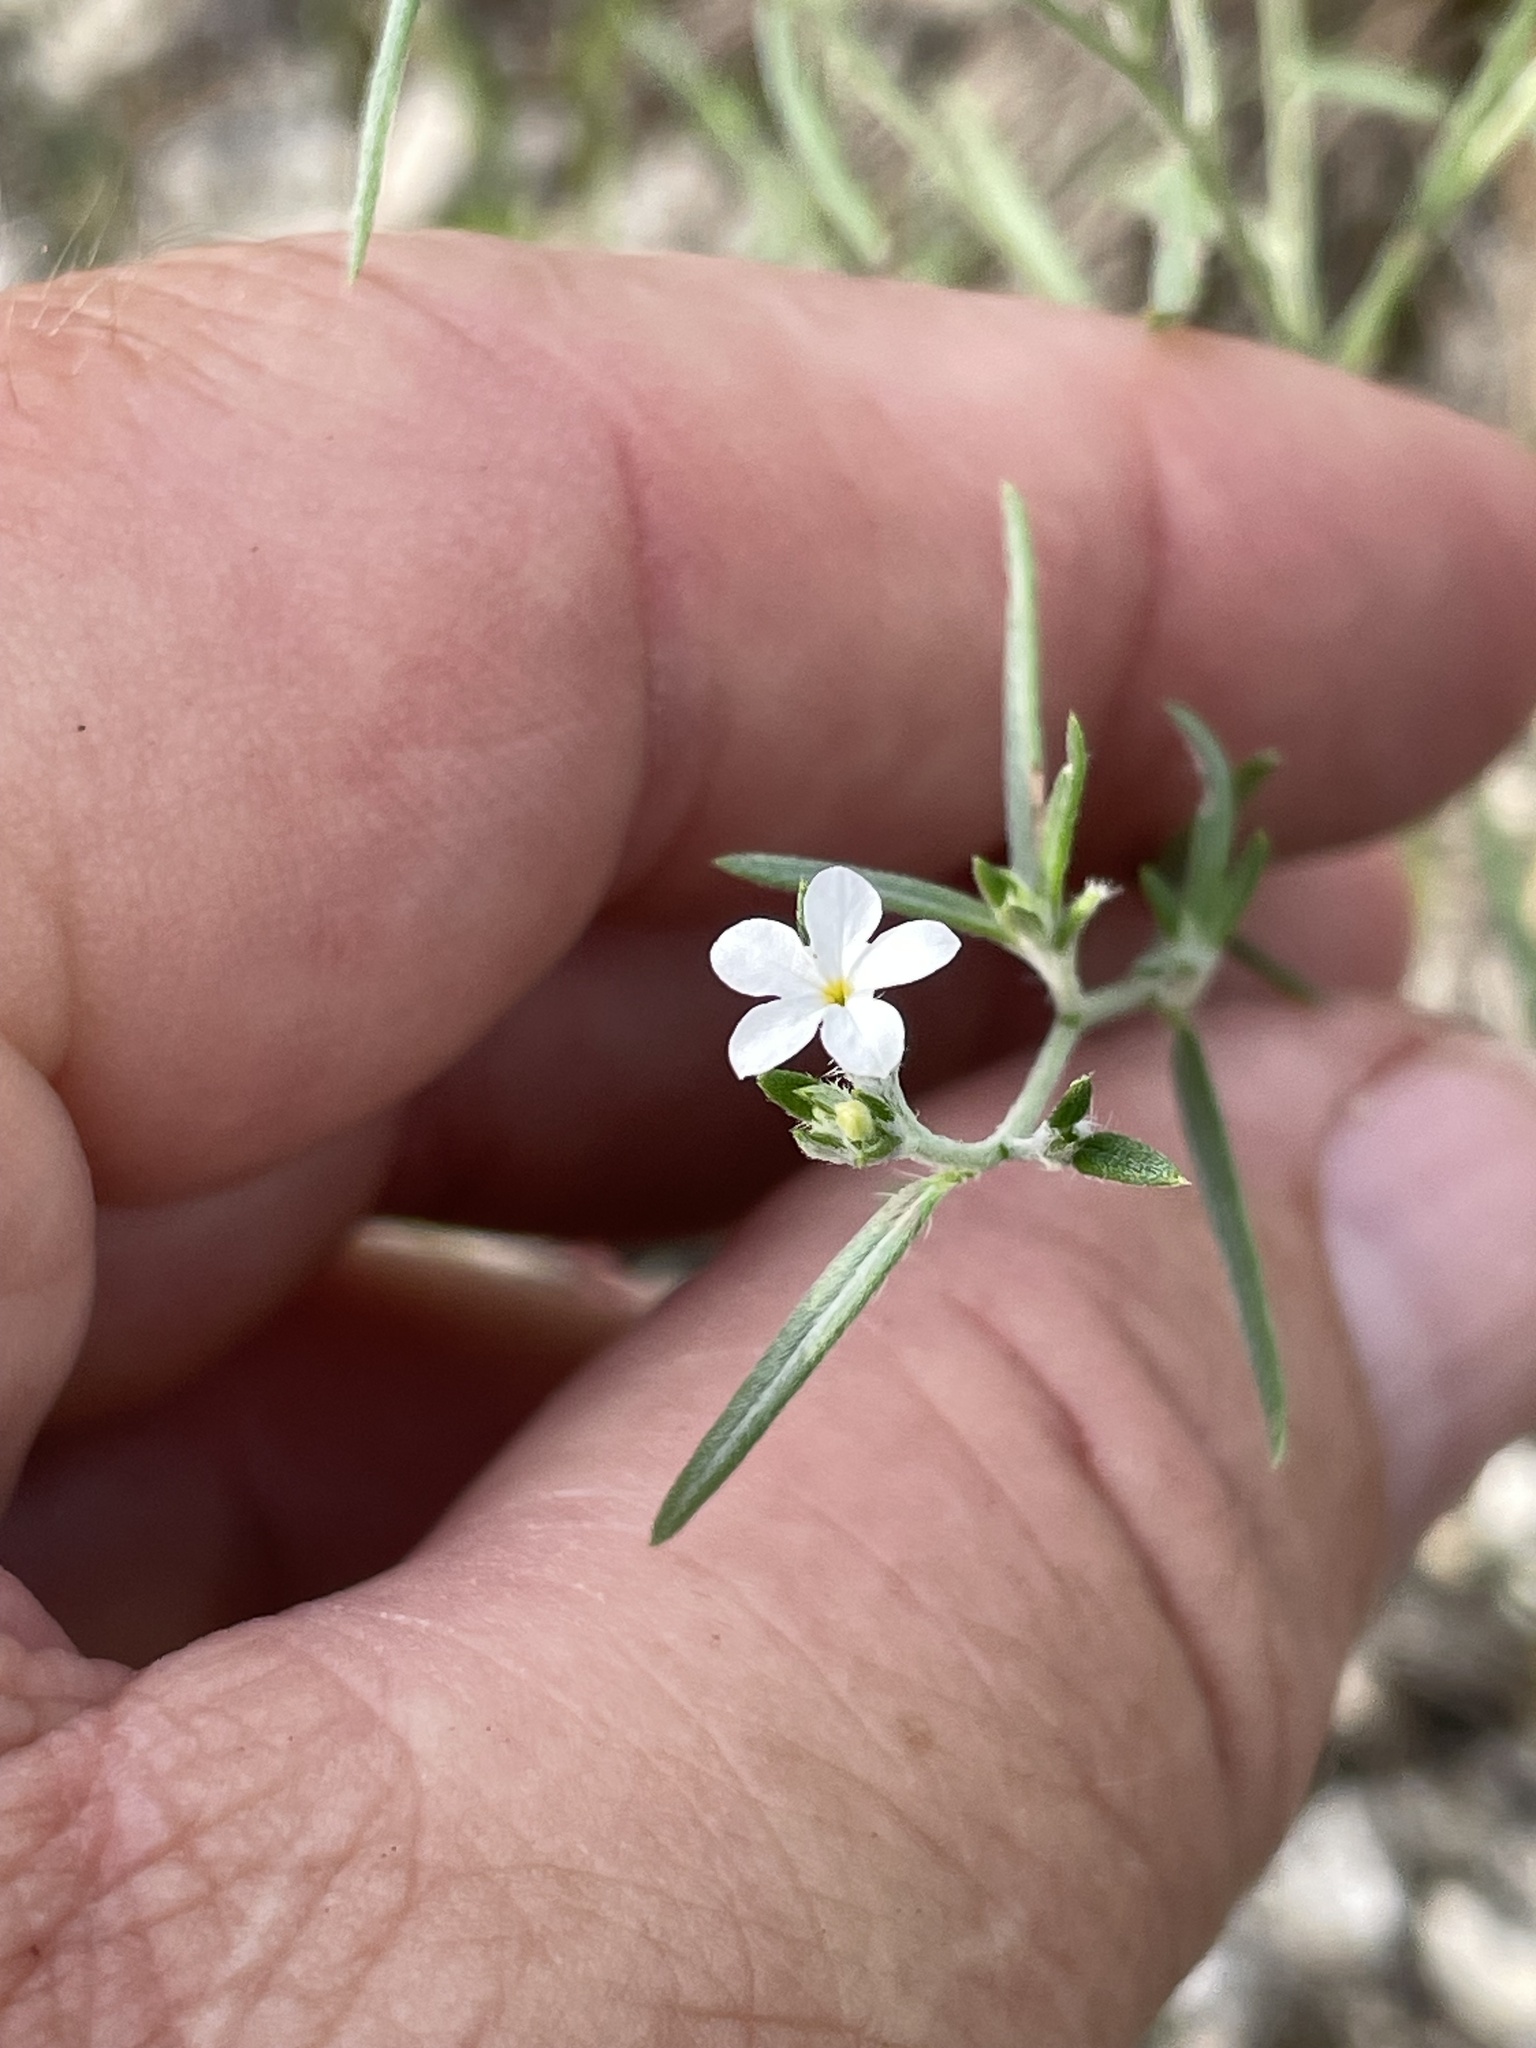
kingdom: Plantae
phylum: Tracheophyta
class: Magnoliopsida
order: Boraginales
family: Heliotropiaceae
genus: Euploca
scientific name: Euploca tenella
